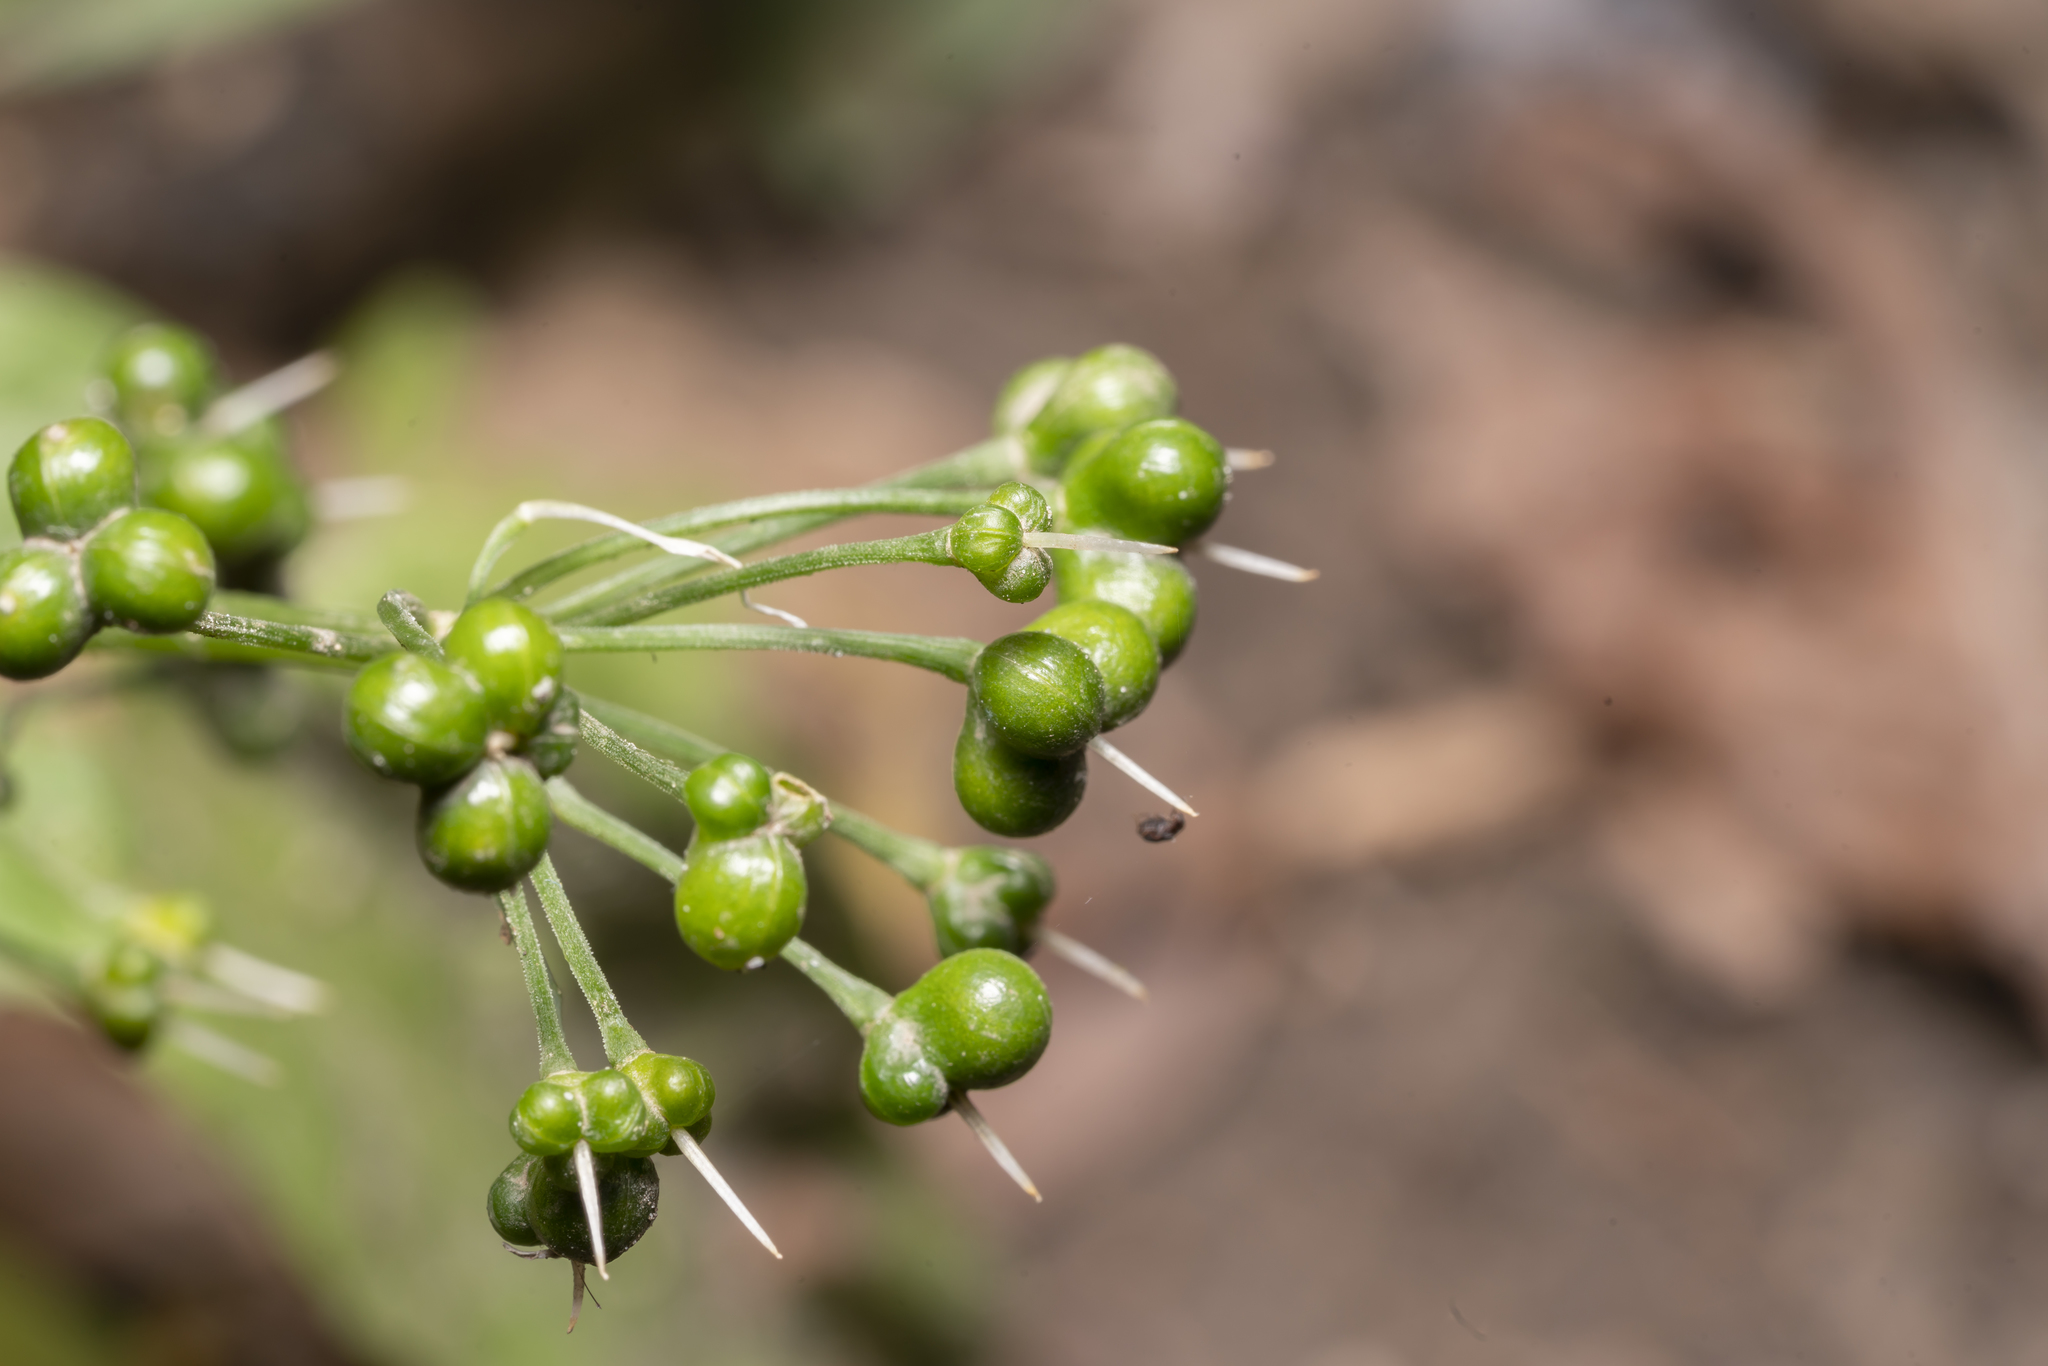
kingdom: Plantae
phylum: Tracheophyta
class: Liliopsida
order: Asparagales
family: Amaryllidaceae
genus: Allium
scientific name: Allium ursinum
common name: Ramsons
